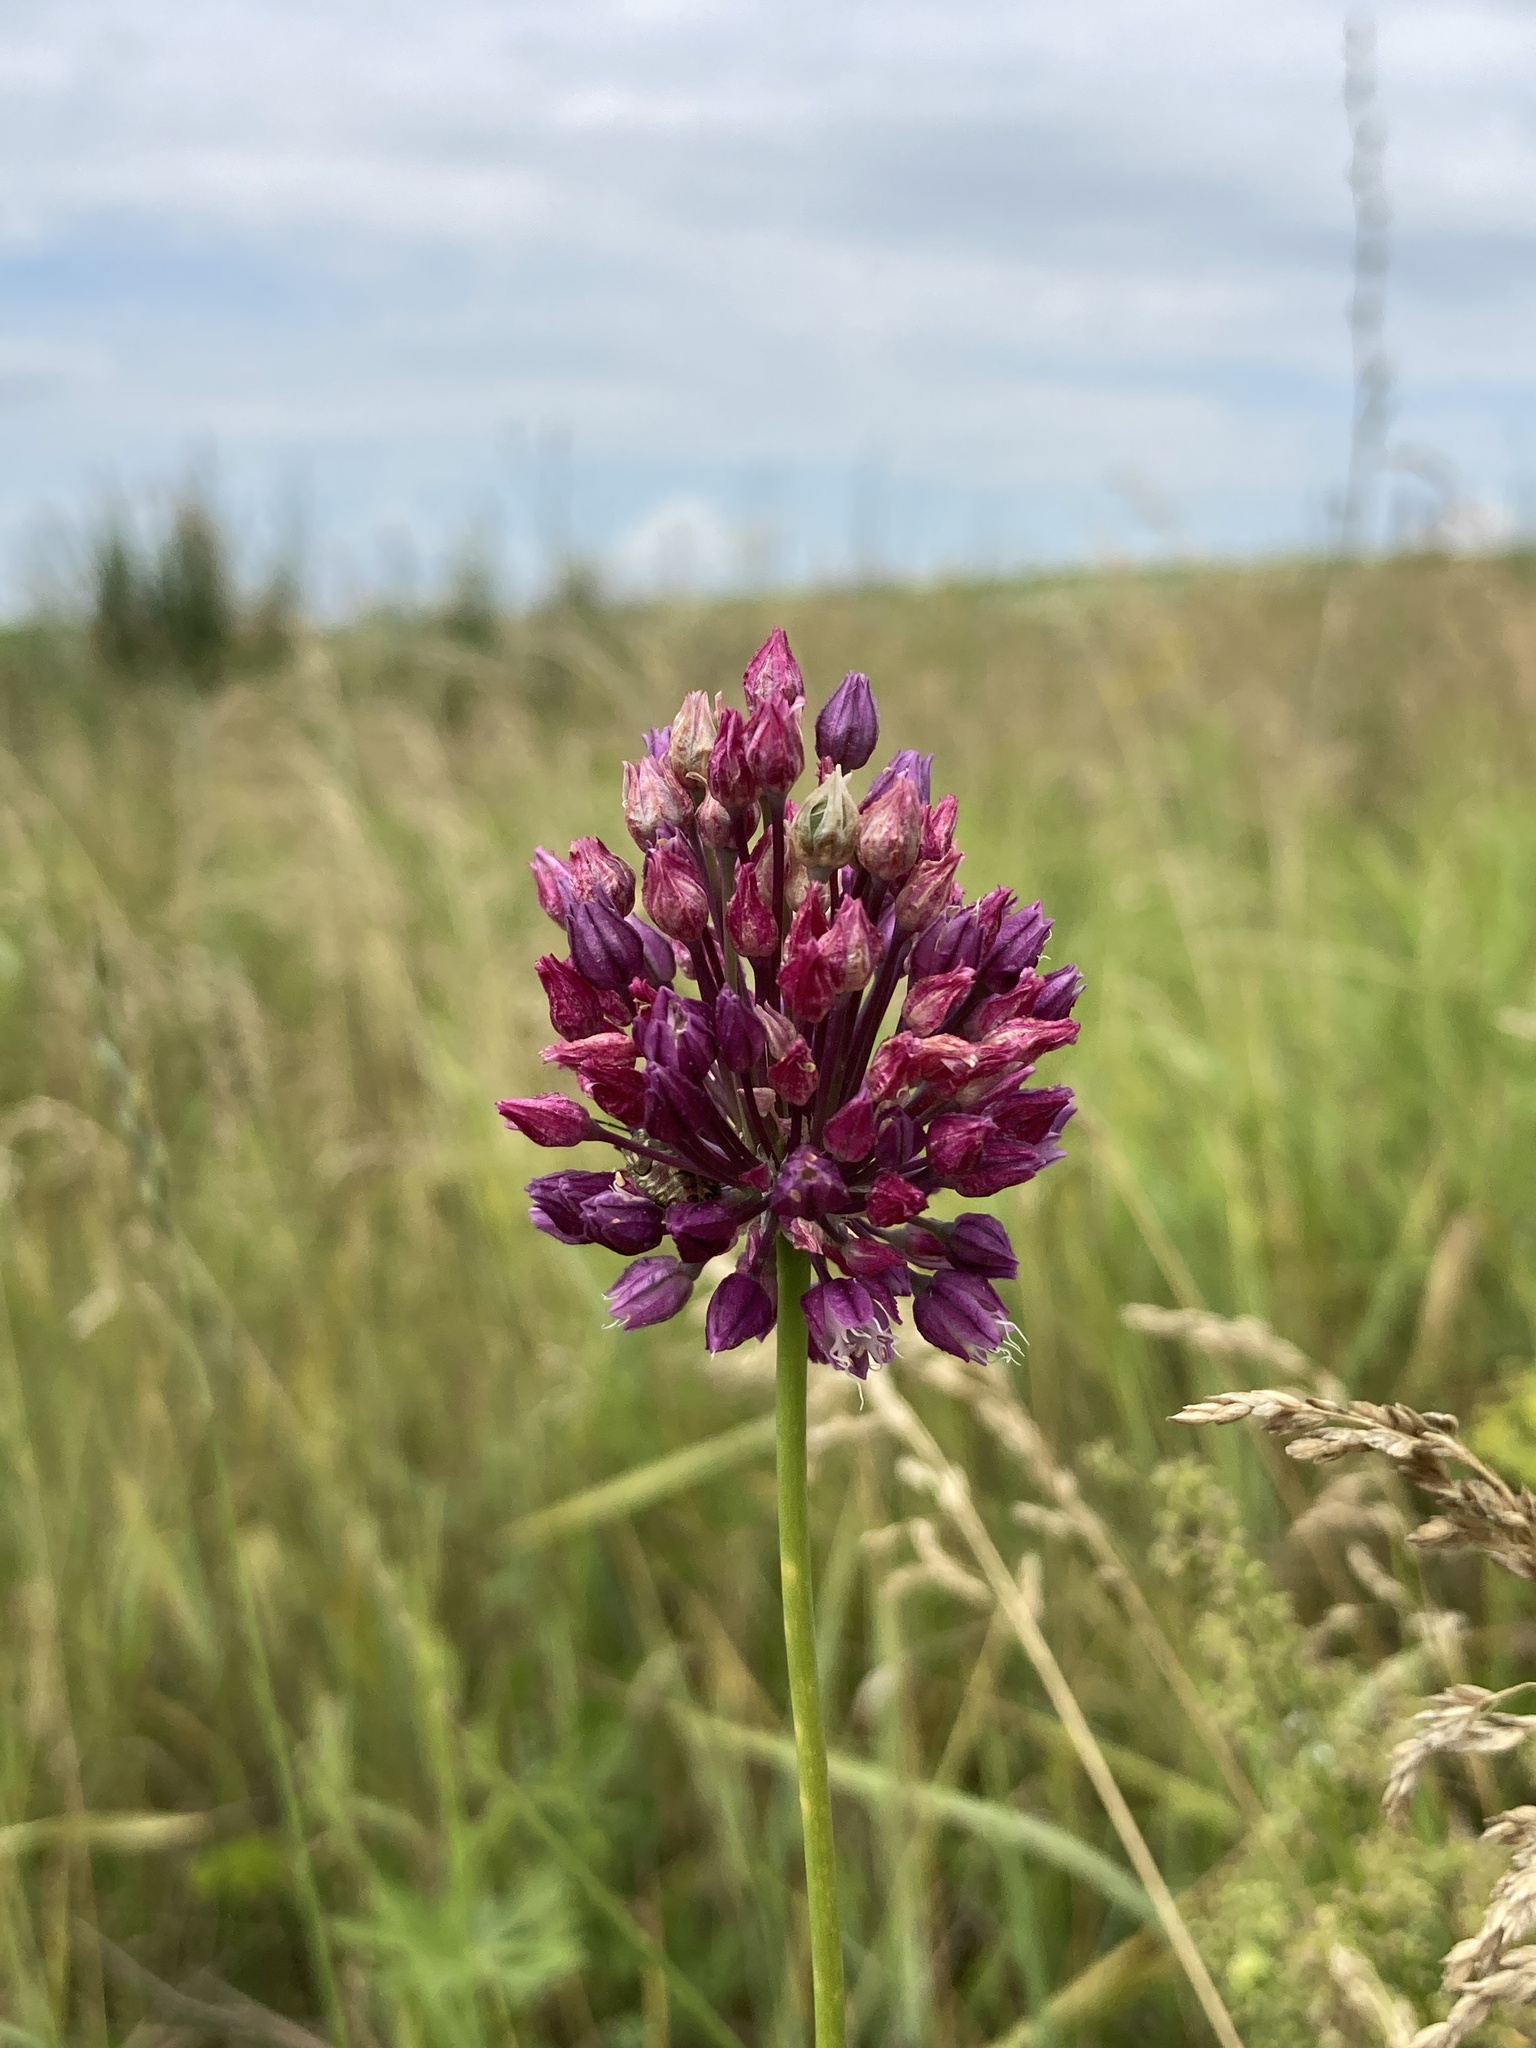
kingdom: Plantae
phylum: Tracheophyta
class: Liliopsida
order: Asparagales
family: Amaryllidaceae
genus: Allium
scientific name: Allium rotundum
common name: Sand leek
